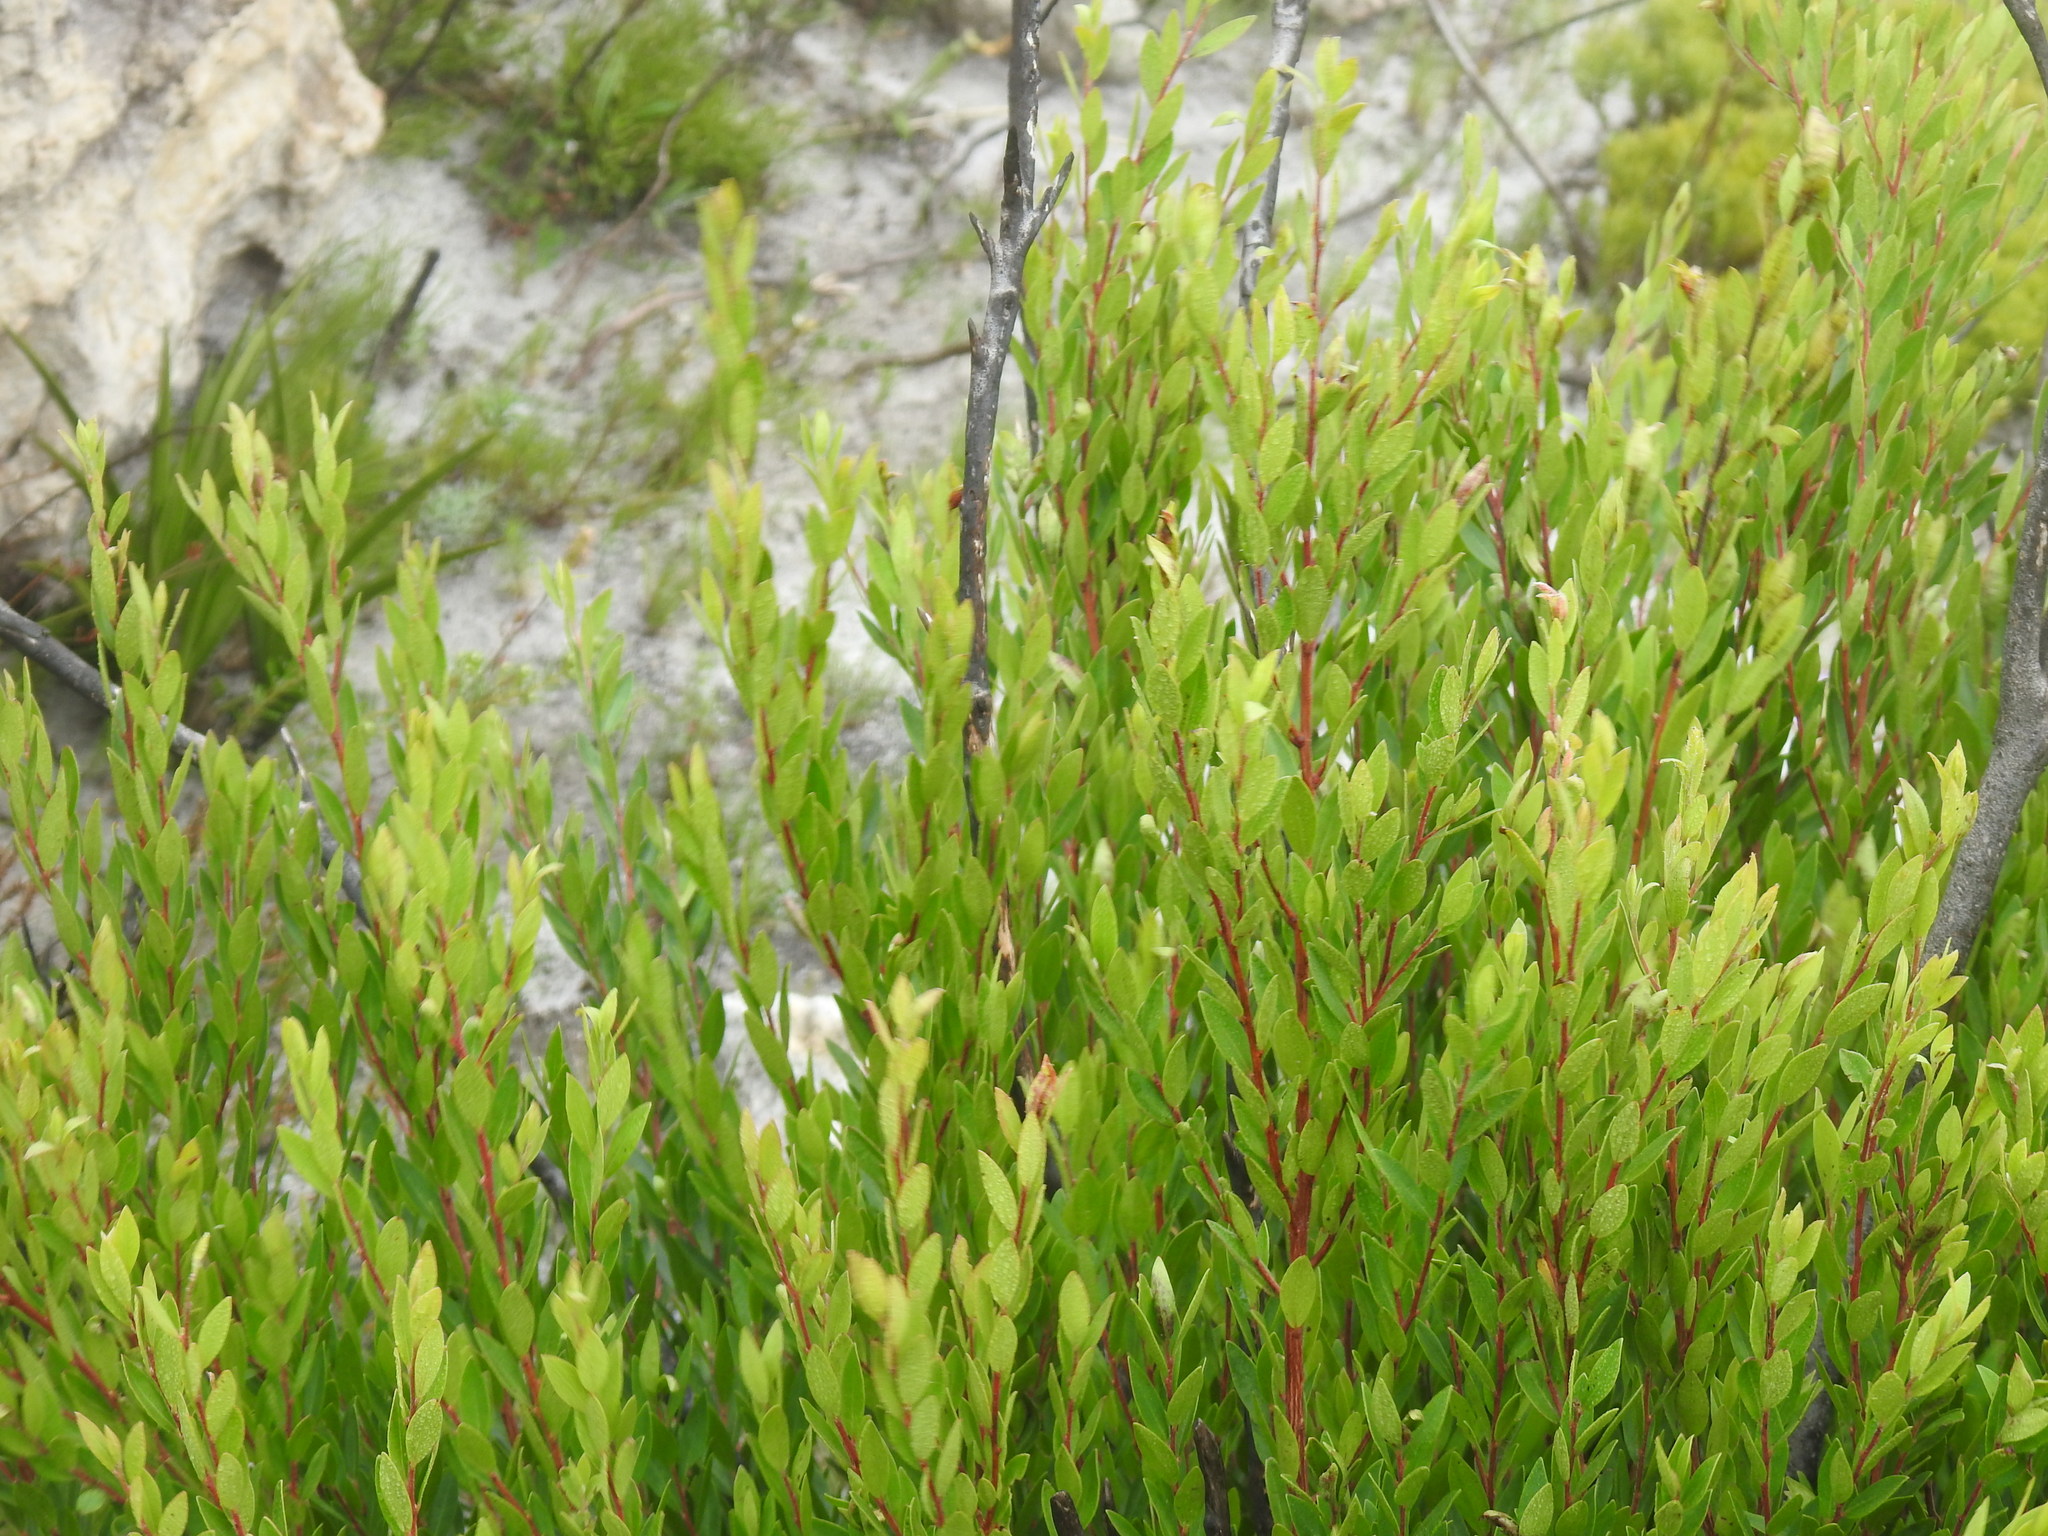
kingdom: Plantae
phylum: Tracheophyta
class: Magnoliopsida
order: Ericales
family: Ebenaceae
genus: Diospyros
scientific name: Diospyros glabra
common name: Fynbos star apple
